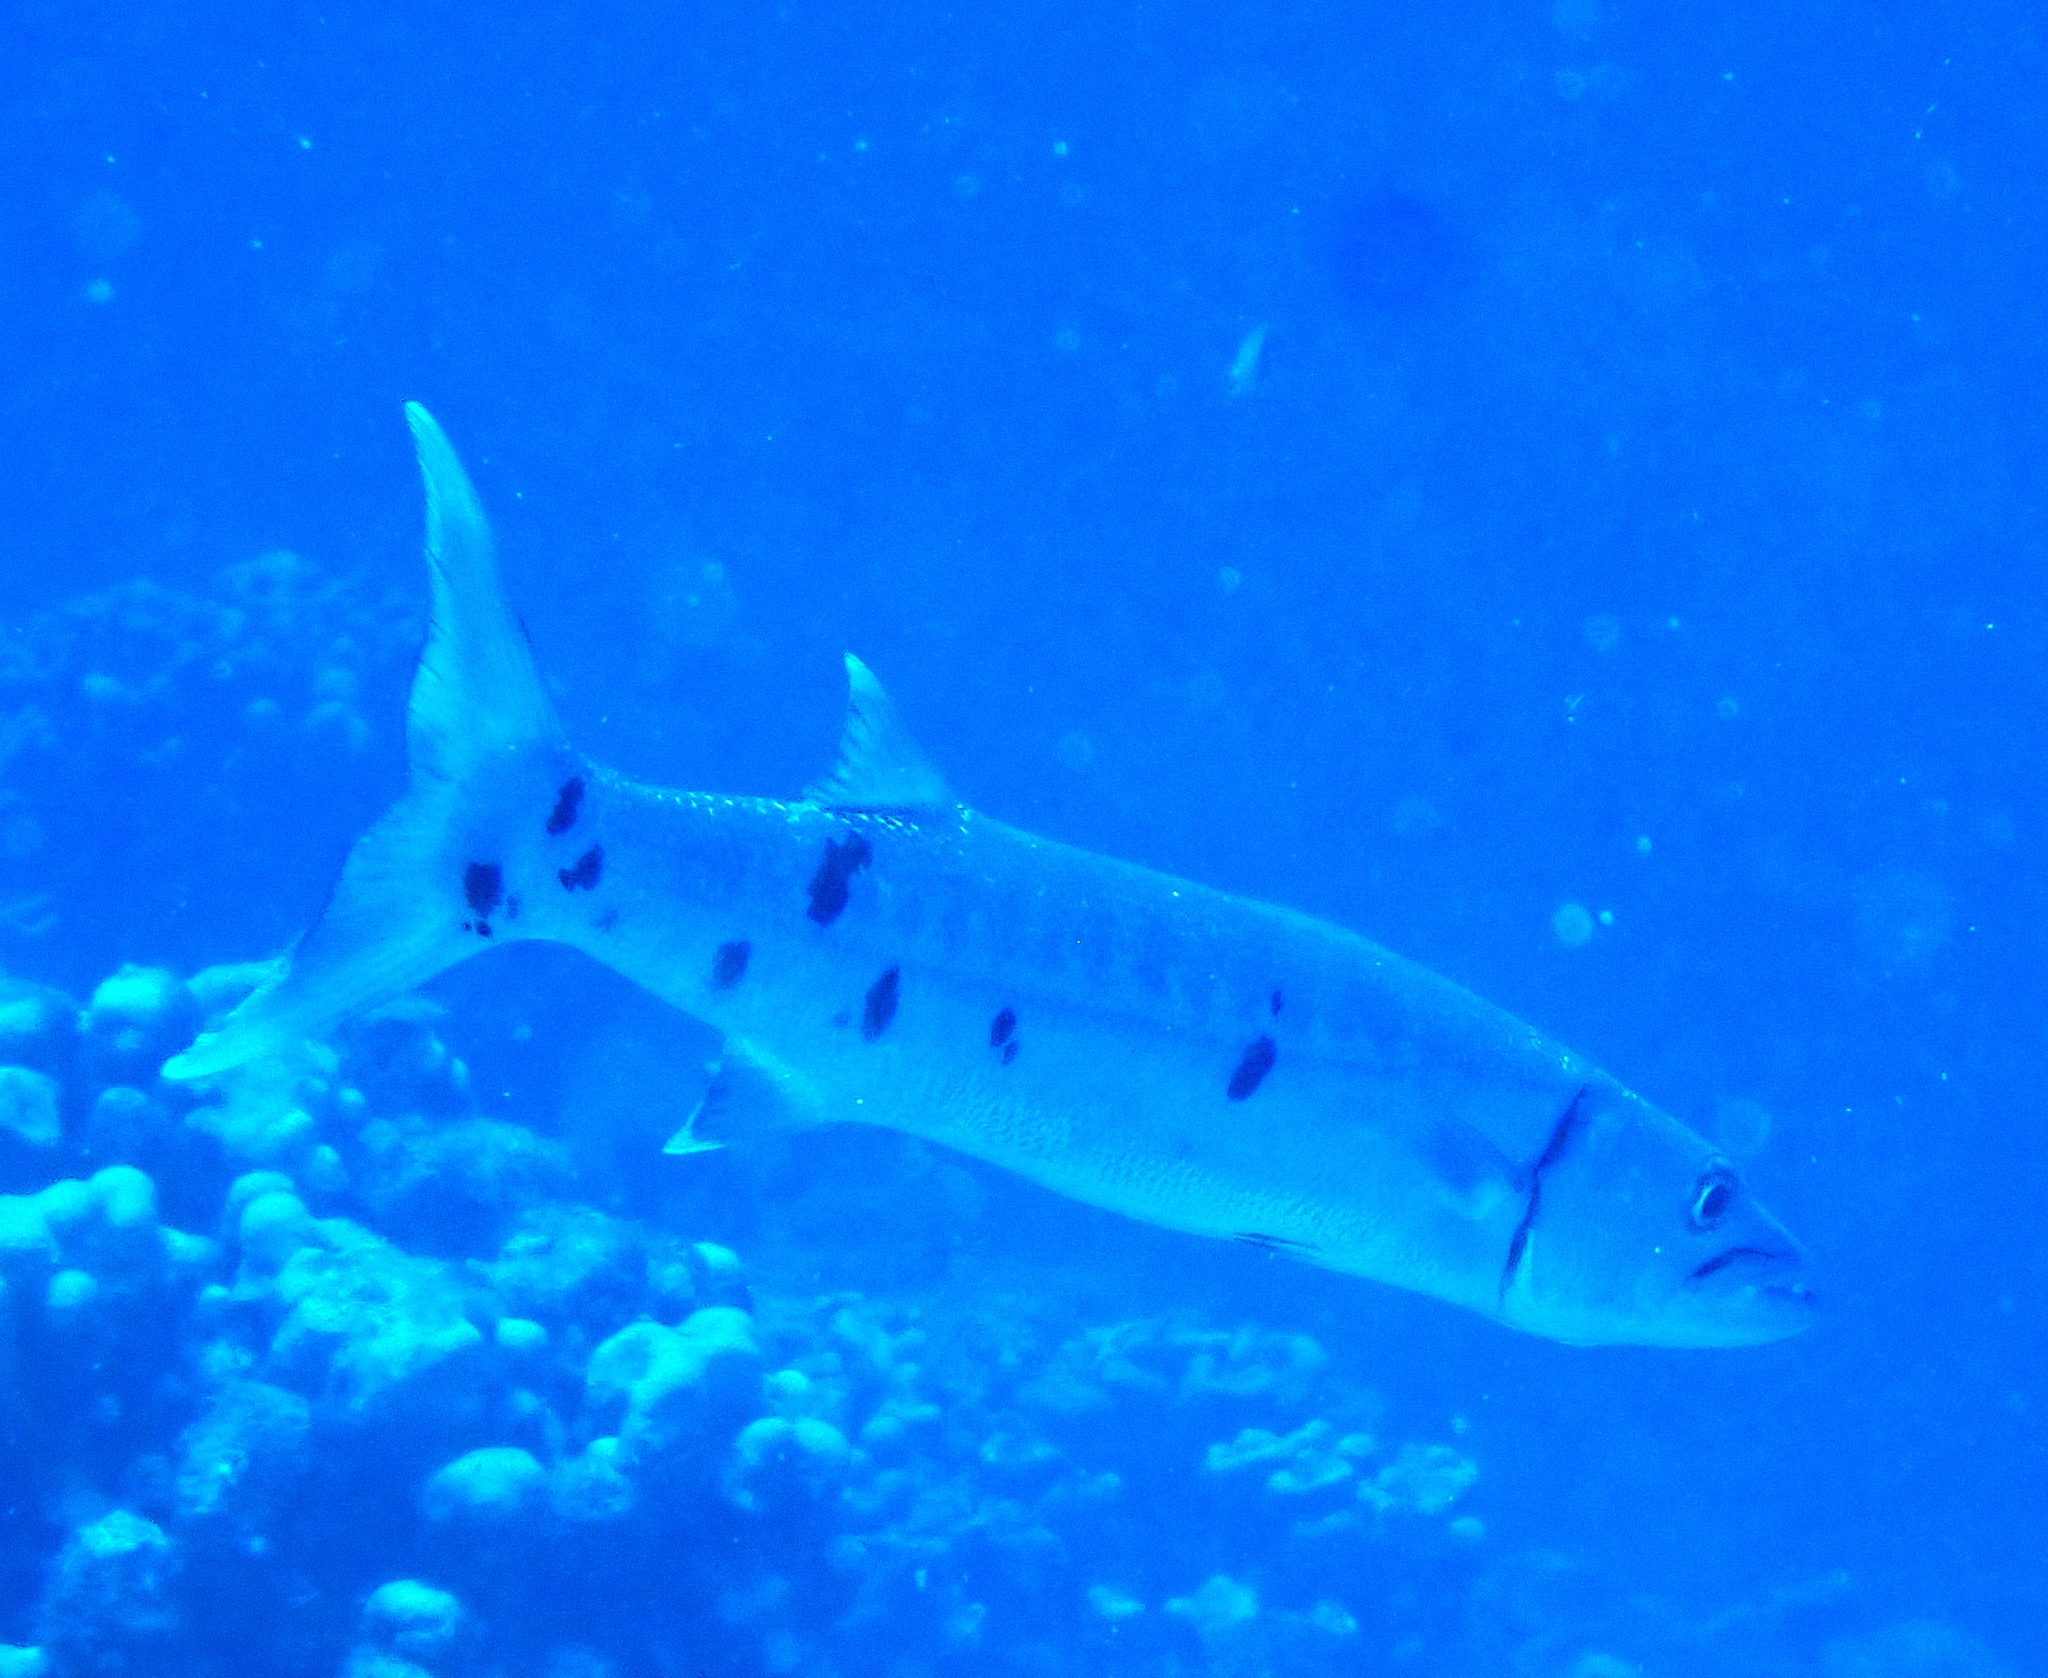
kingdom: Animalia
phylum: Chordata
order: Perciformes
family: Sphyraenidae
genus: Sphyraena
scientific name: Sphyraena barracuda
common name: Great barracuda
